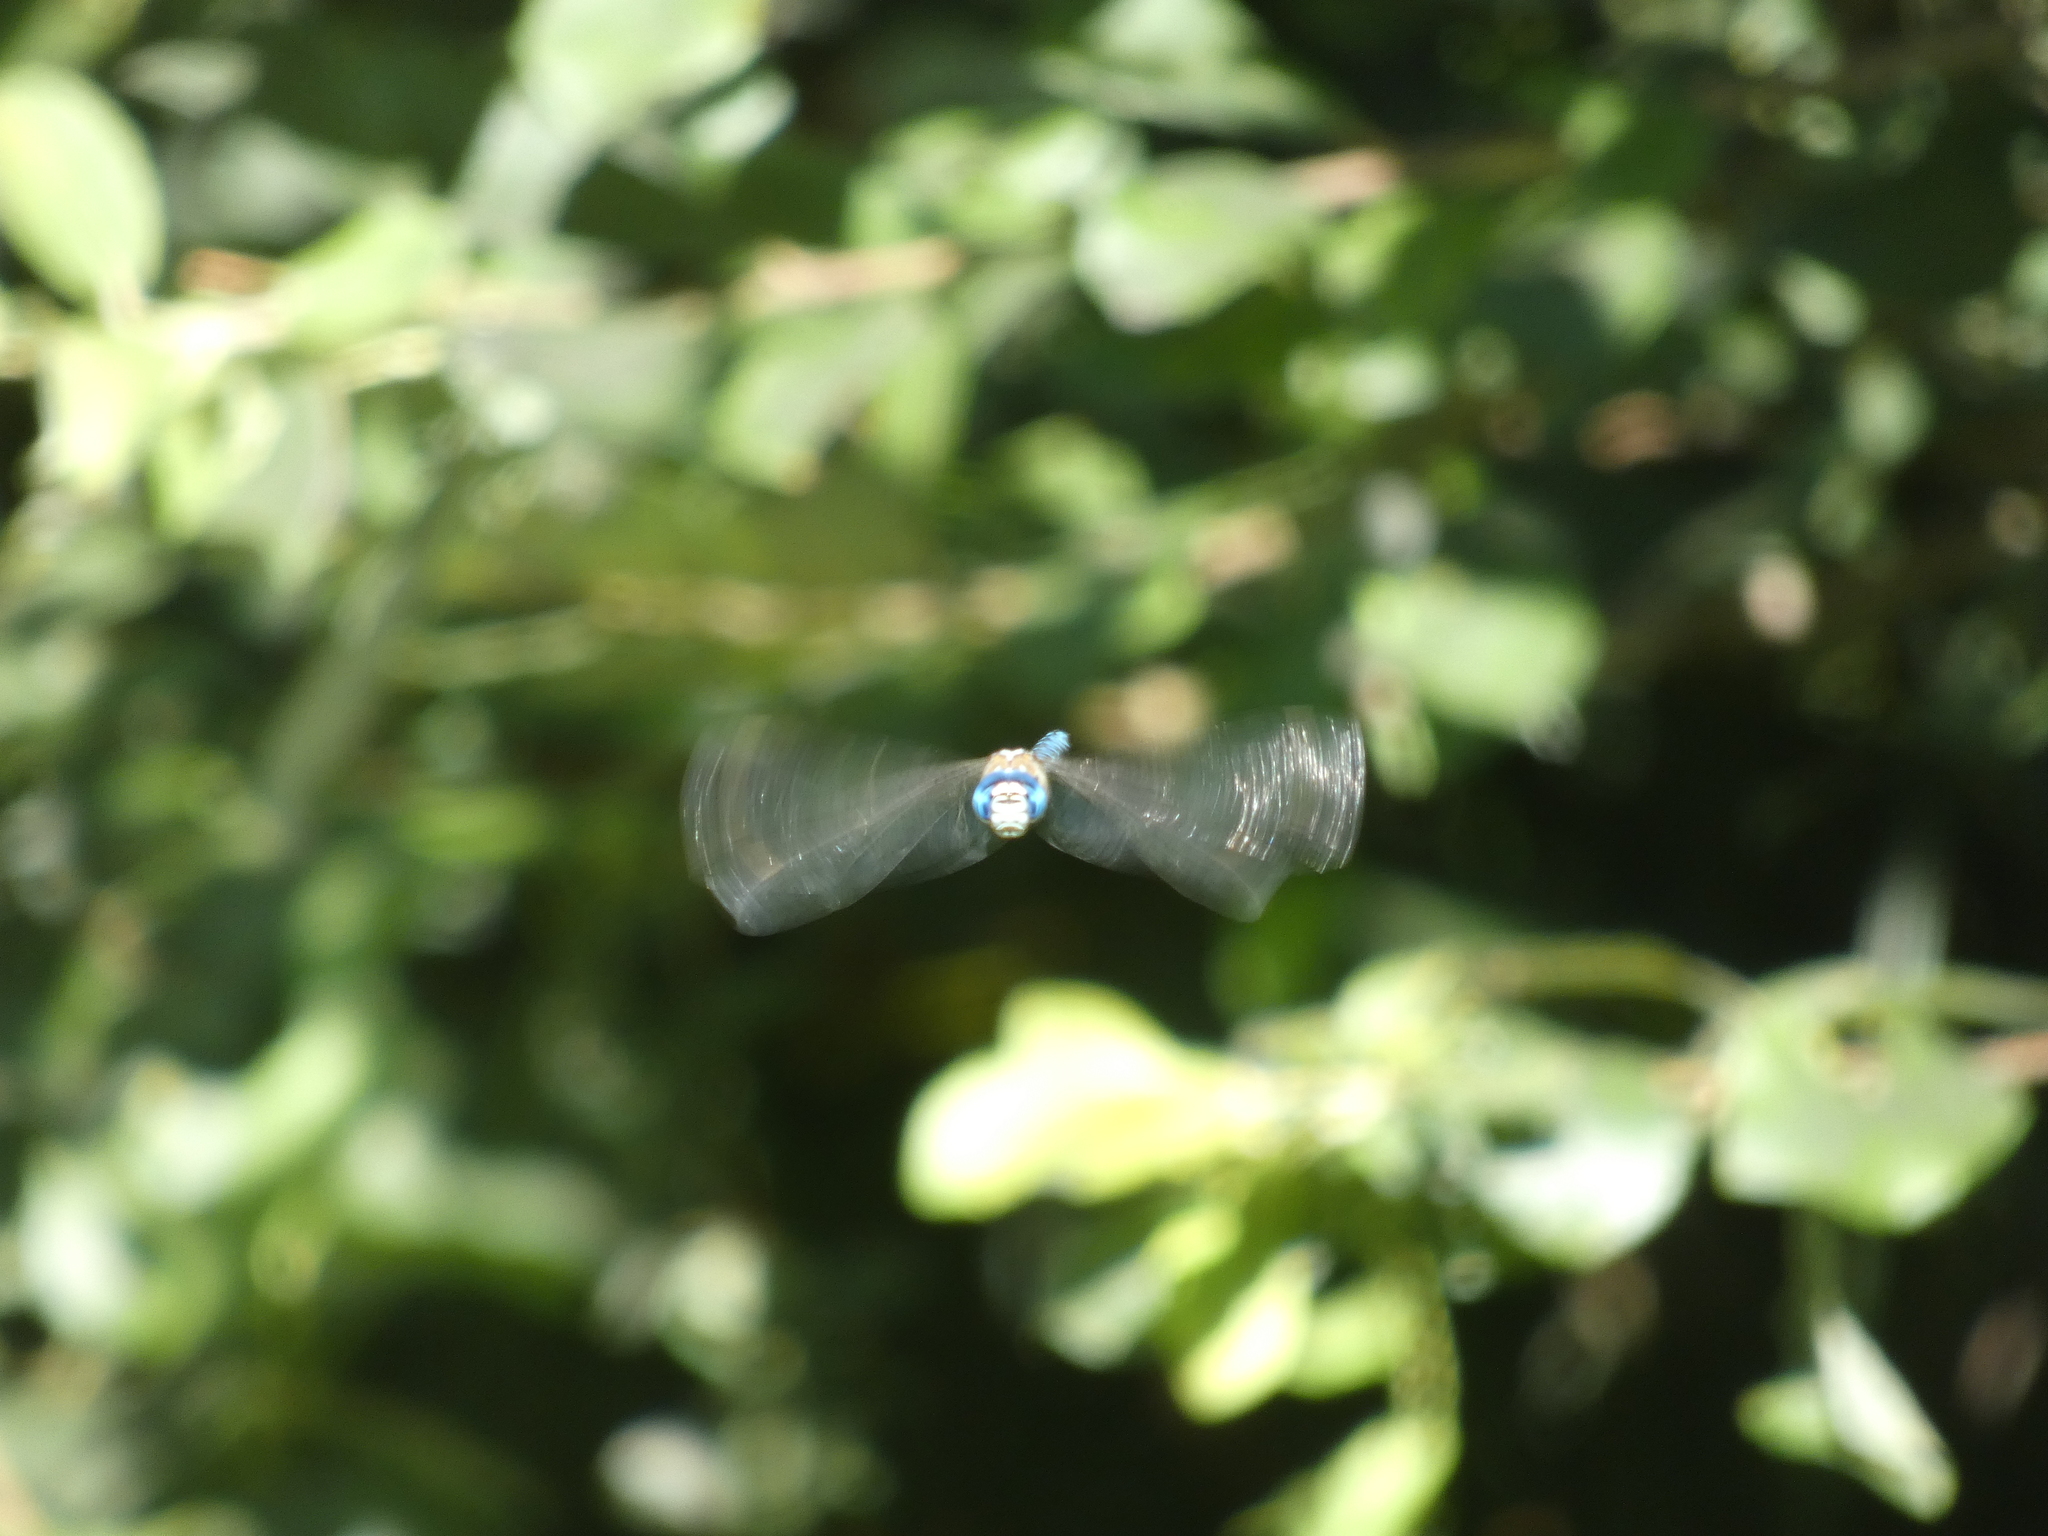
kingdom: Animalia
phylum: Arthropoda
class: Insecta
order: Odonata
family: Aeshnidae
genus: Aeshna
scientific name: Aeshna affinis
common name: Southern migrant hawker
